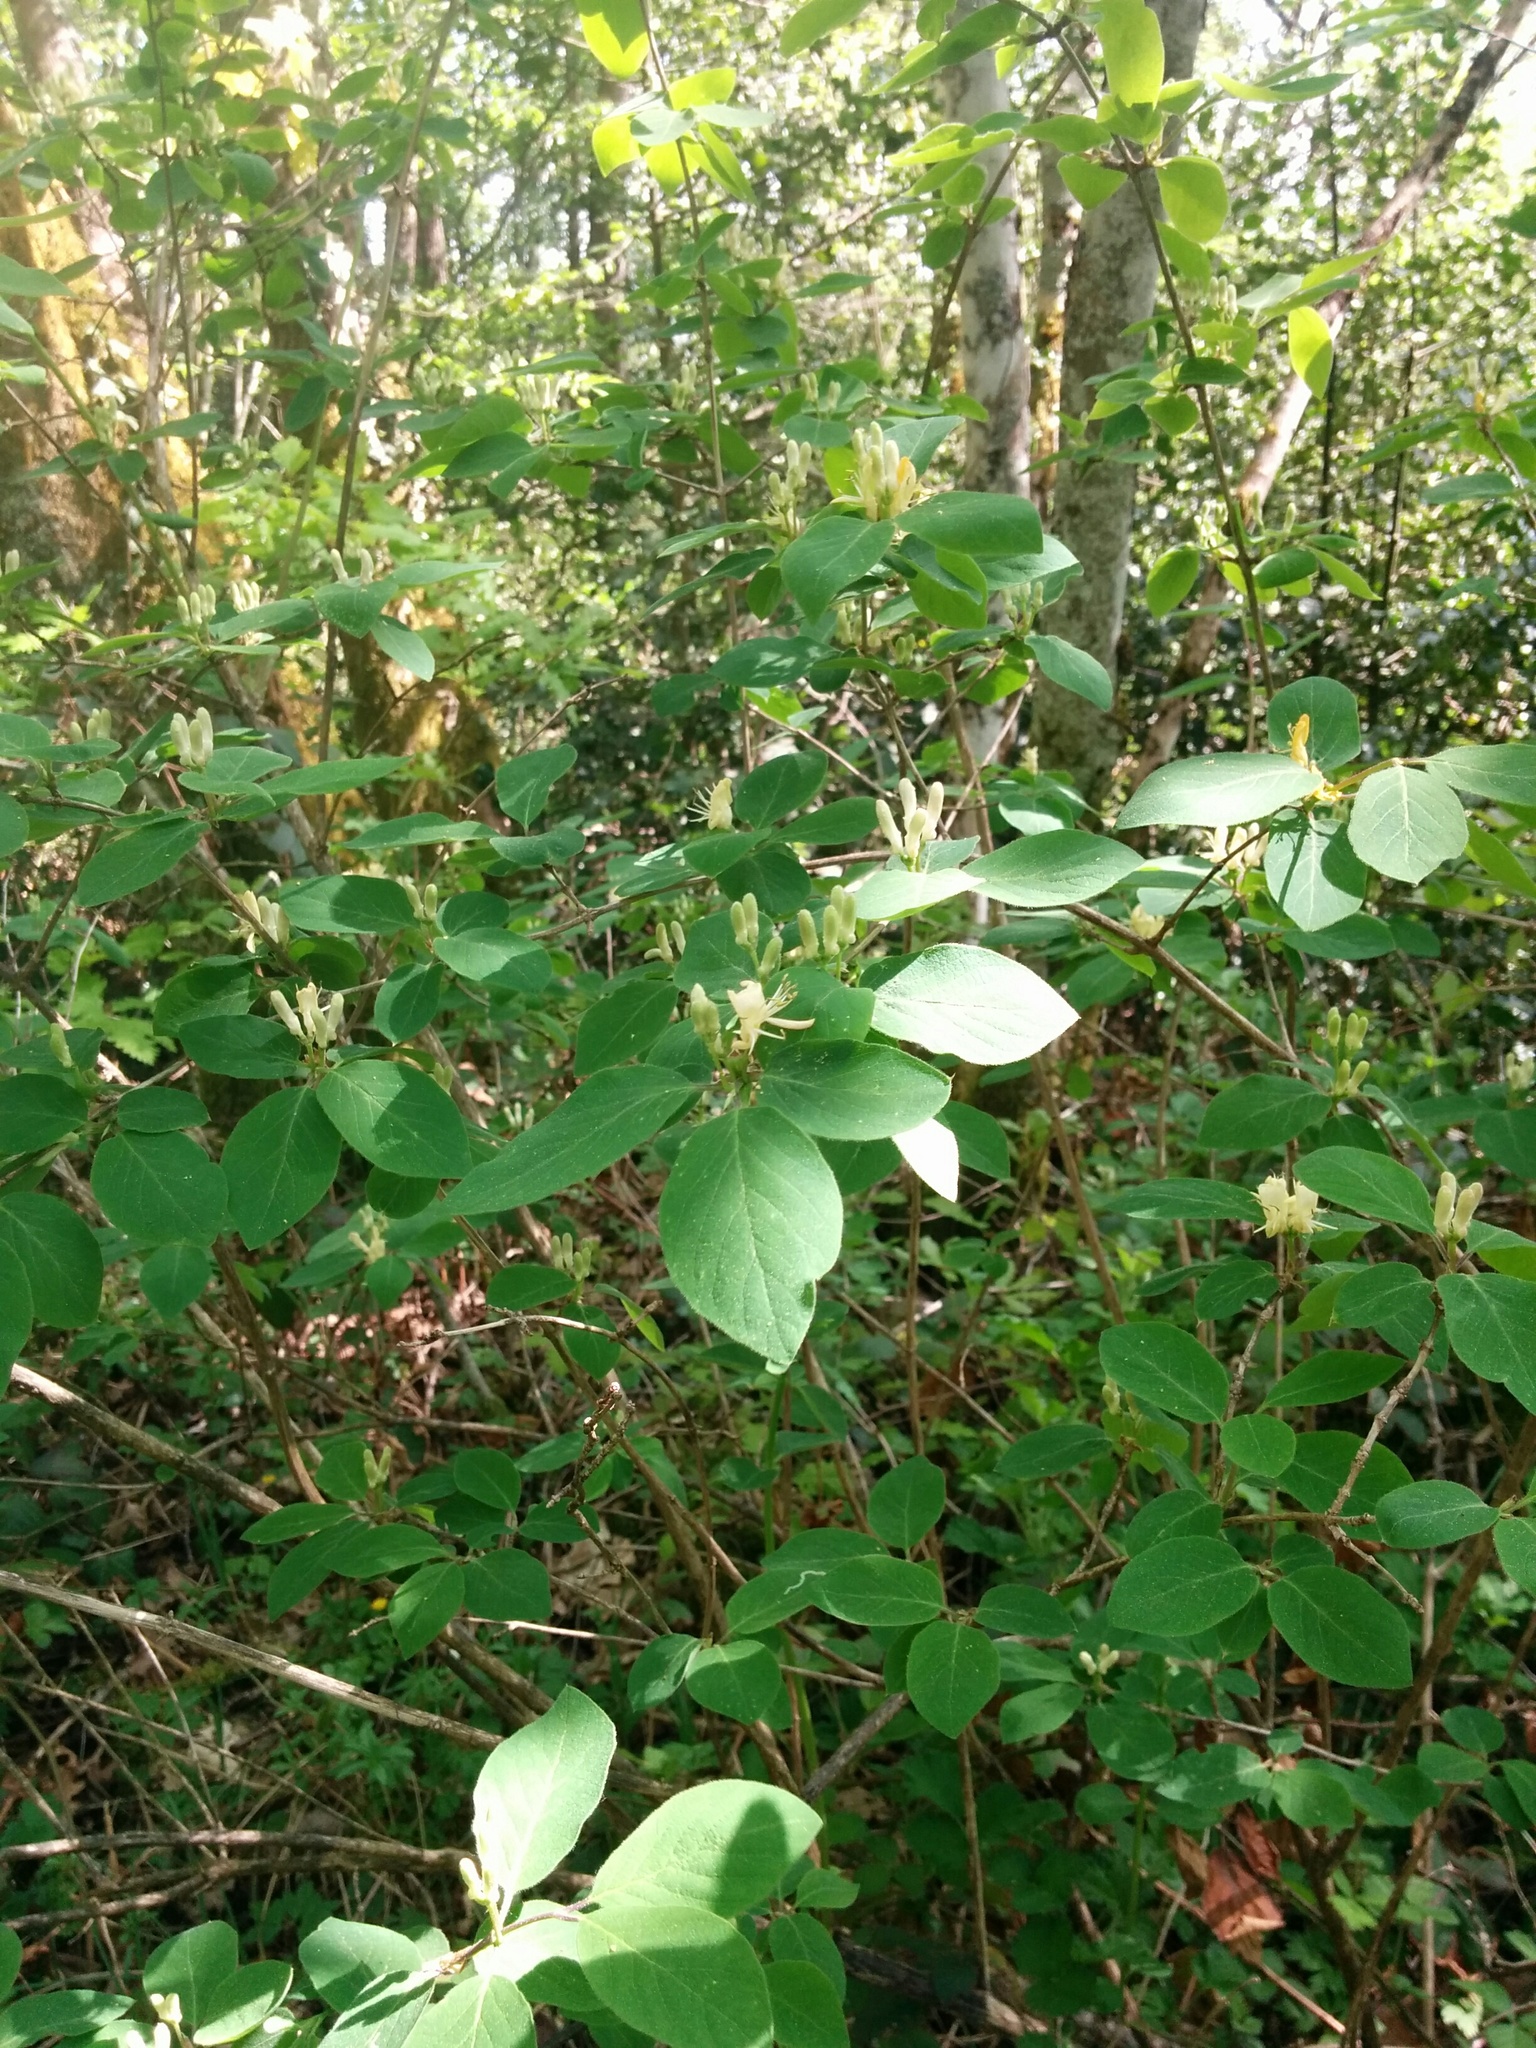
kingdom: Plantae
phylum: Tracheophyta
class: Magnoliopsida
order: Dipsacales
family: Caprifoliaceae
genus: Lonicera
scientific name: Lonicera xylosteum
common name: Fly honeysuckle
